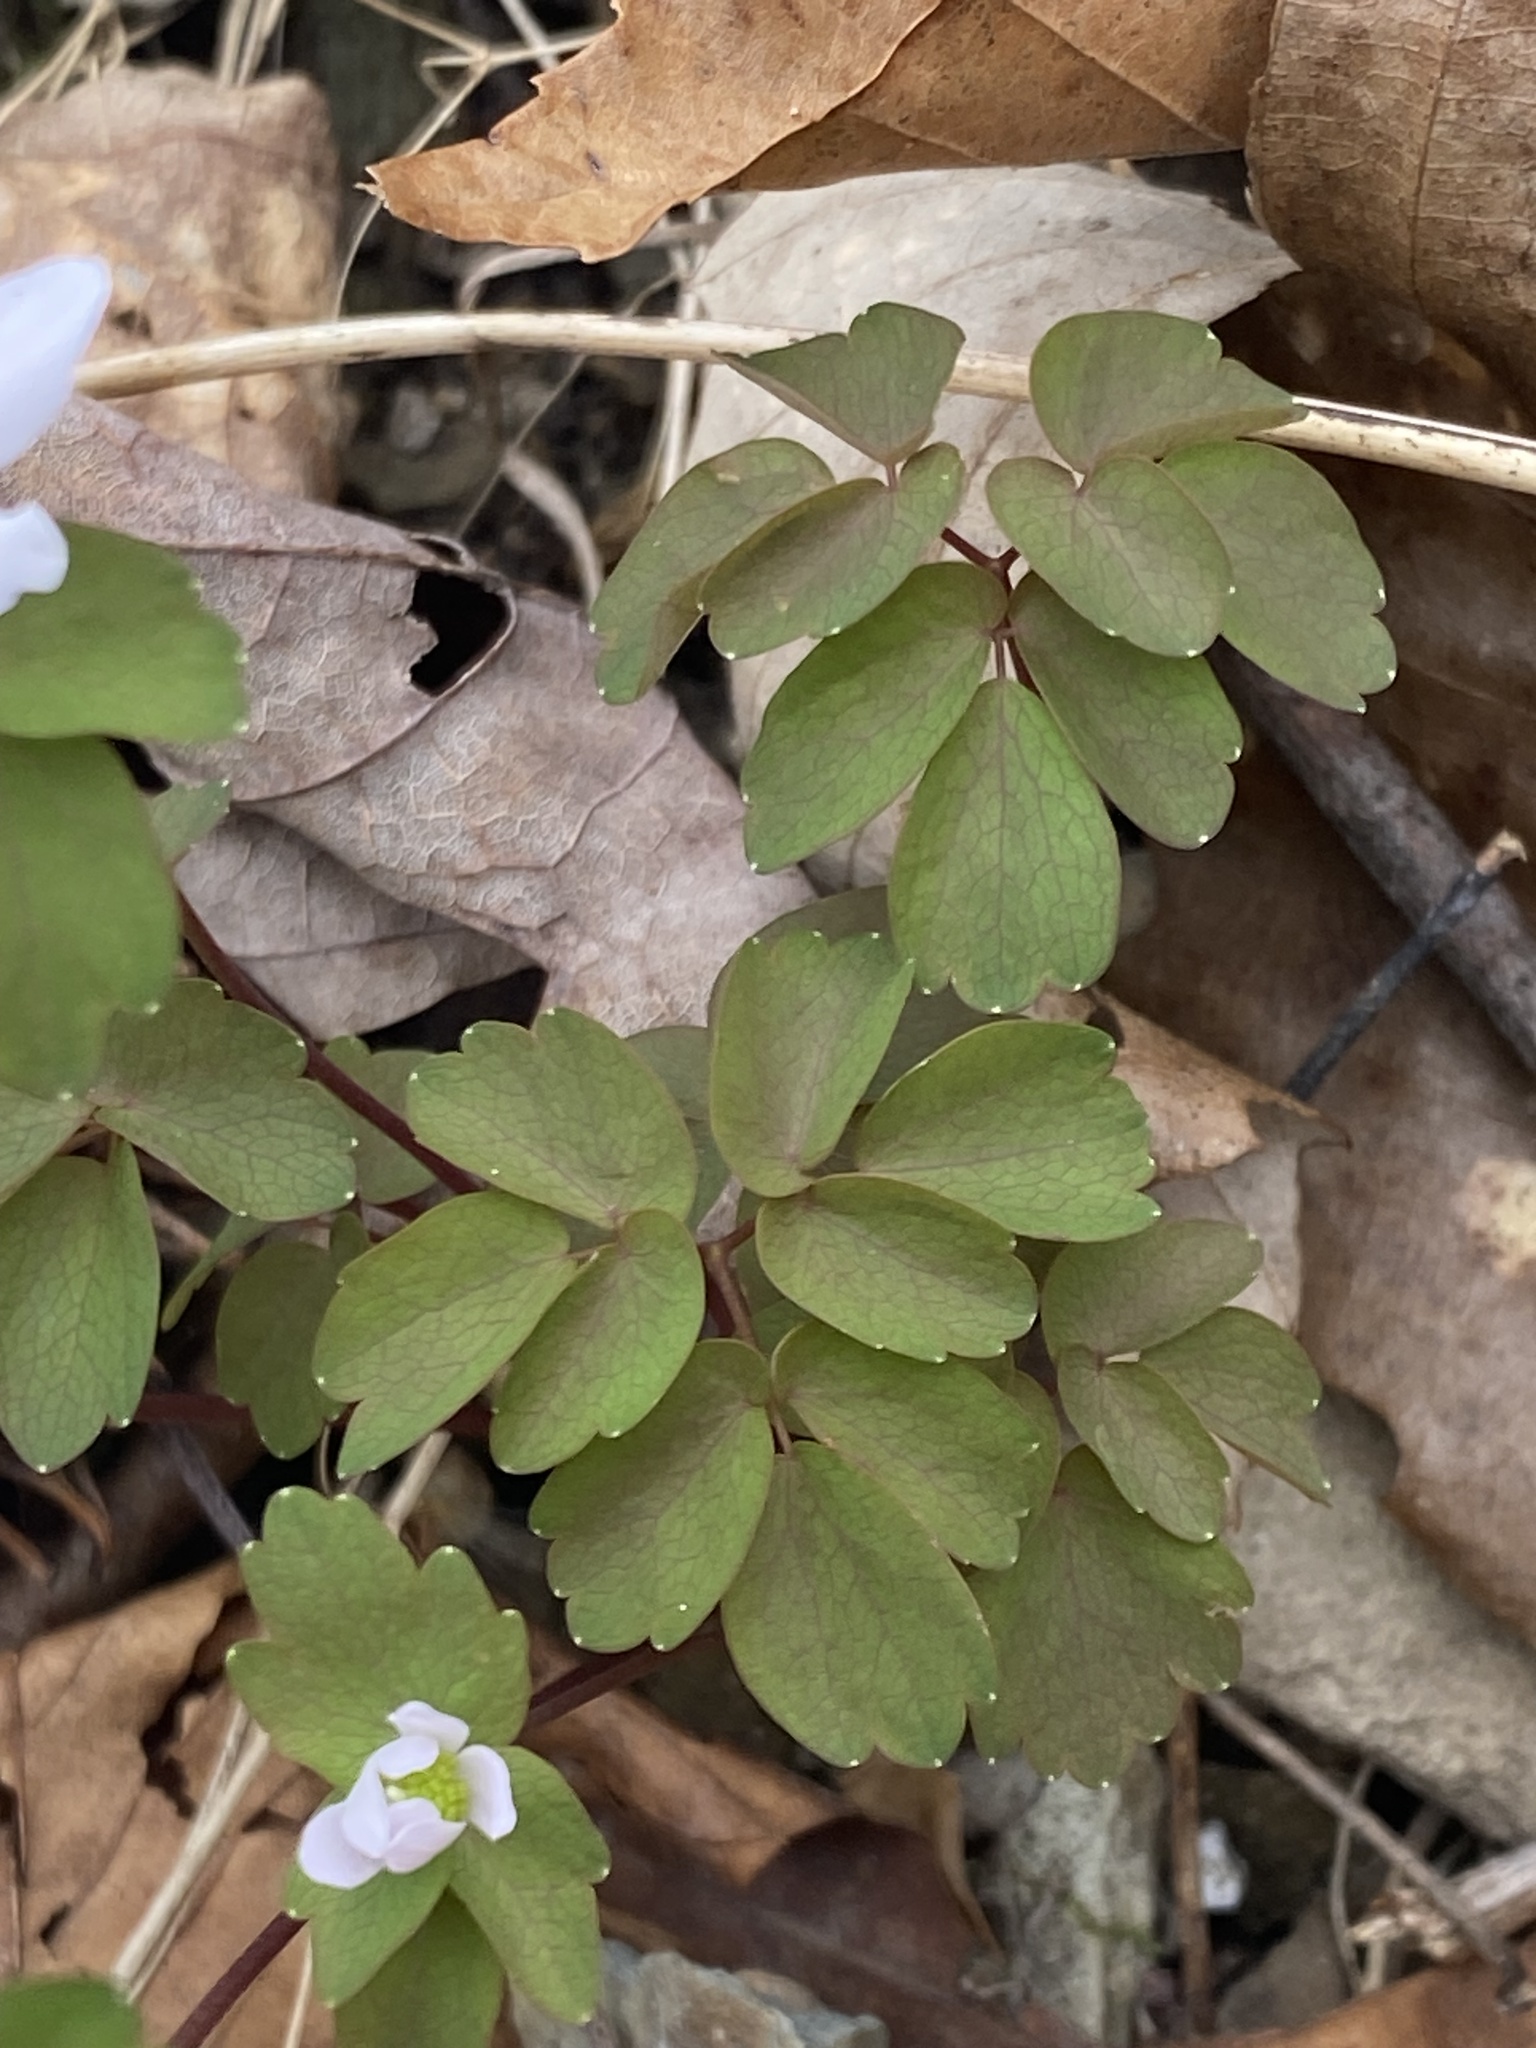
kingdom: Plantae
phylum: Tracheophyta
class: Magnoliopsida
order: Ranunculales
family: Ranunculaceae
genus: Thalictrum
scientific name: Thalictrum thalictroides
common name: Rue-anemone
